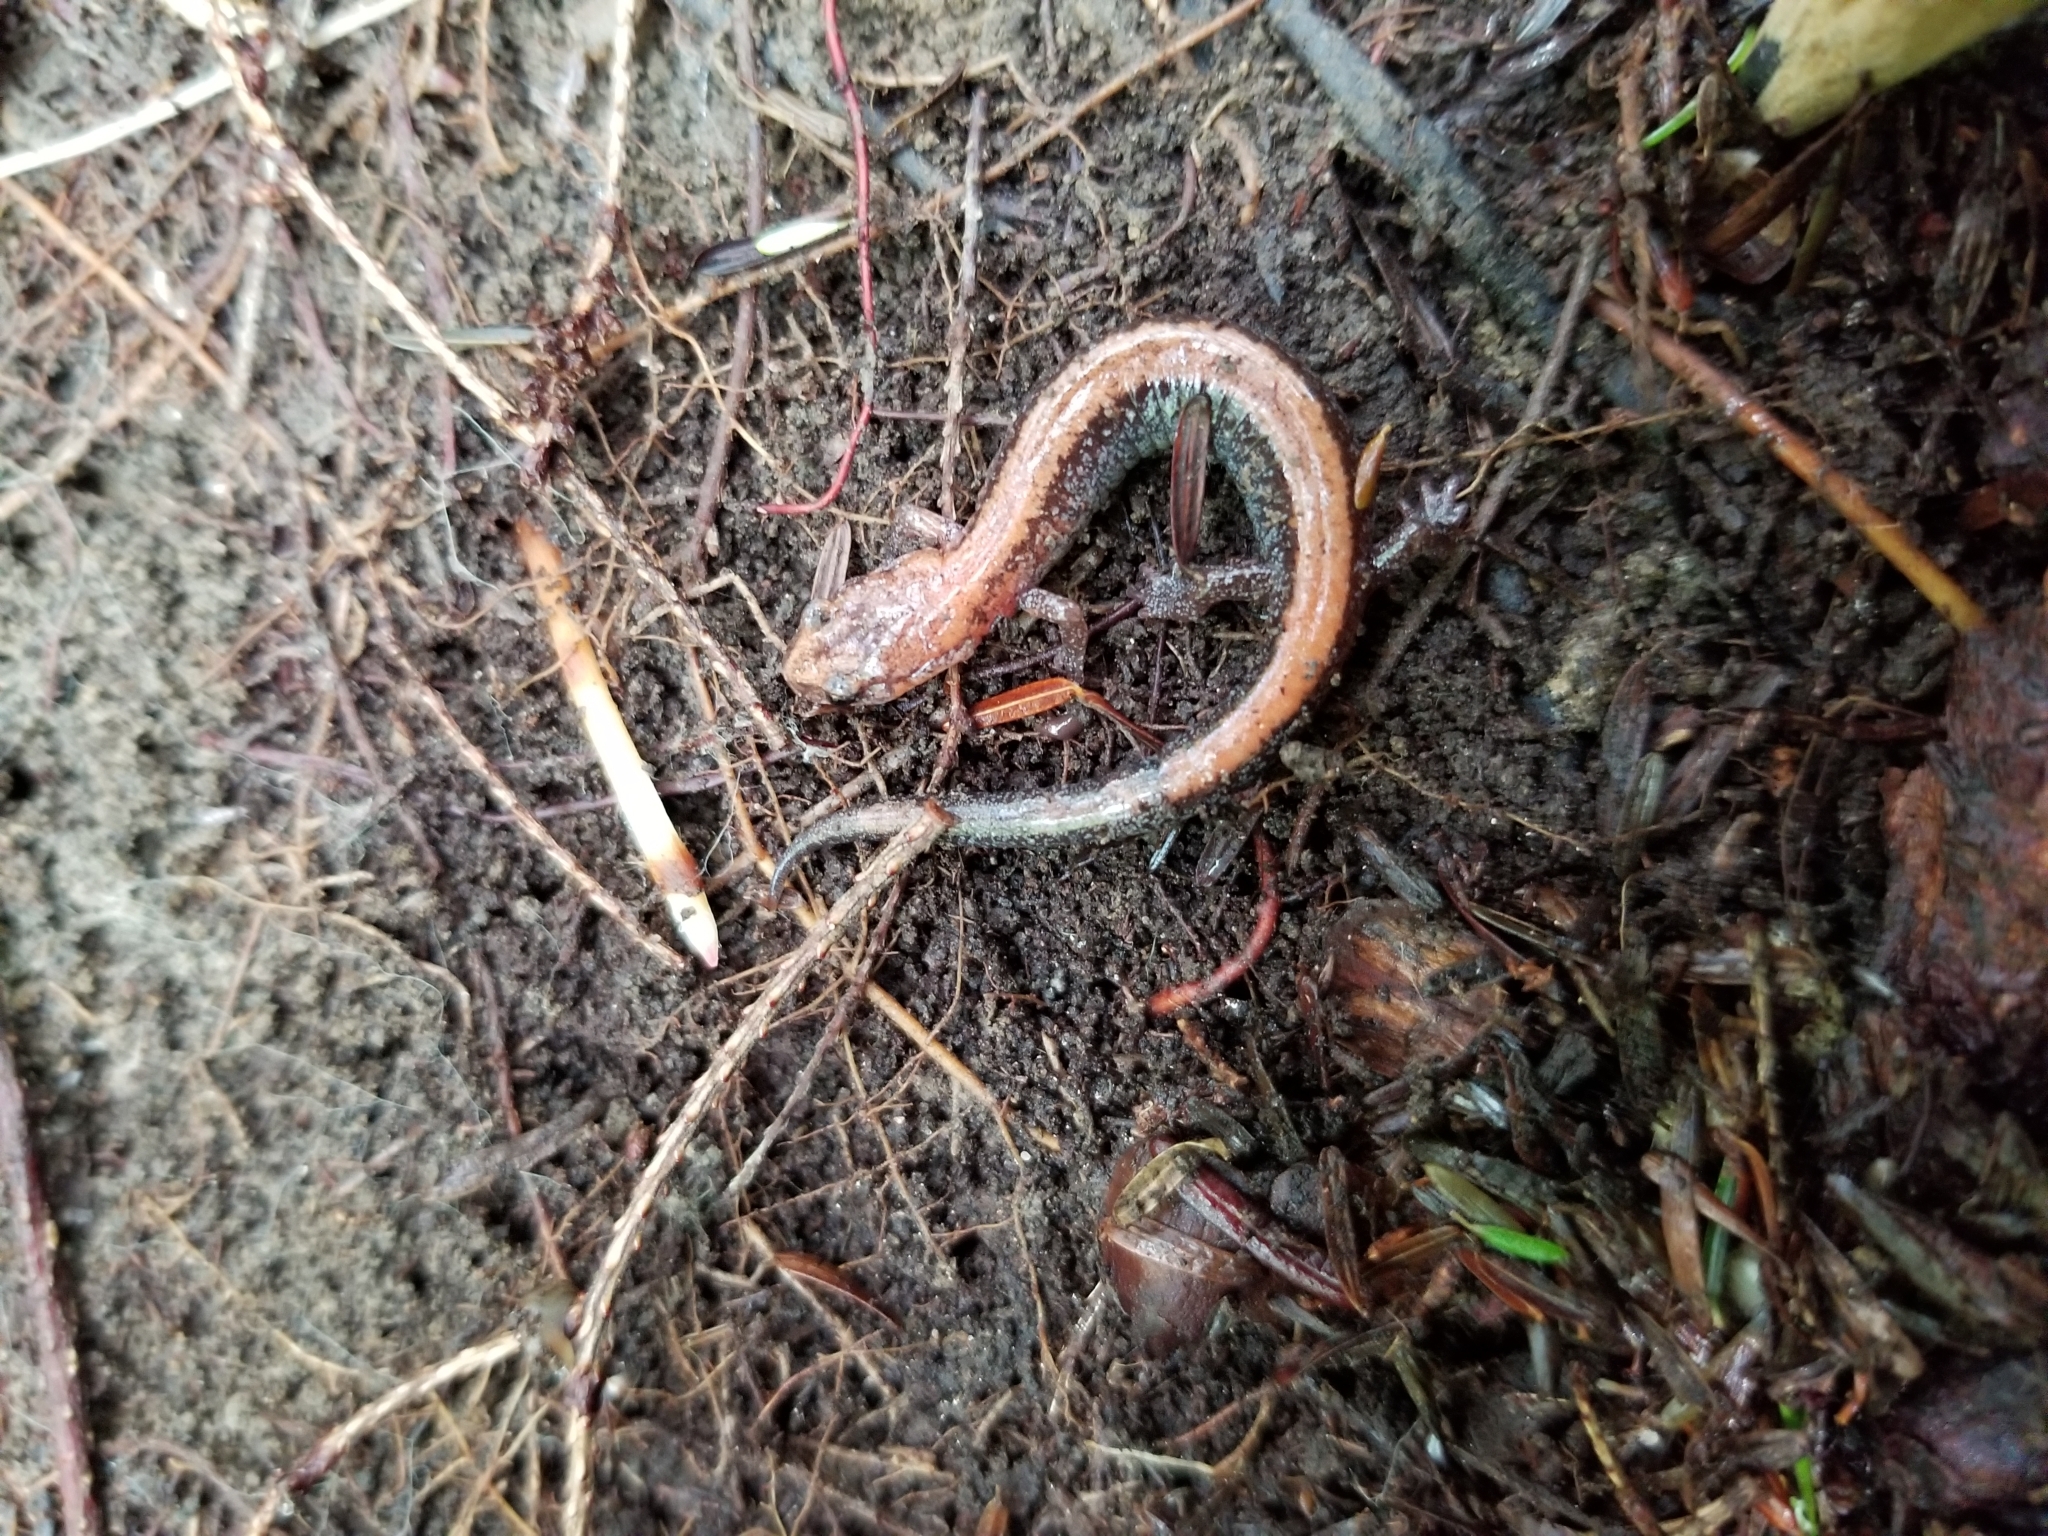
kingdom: Animalia
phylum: Chordata
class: Amphibia
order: Caudata
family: Plethodontidae
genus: Plethodon
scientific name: Plethodon cinereus
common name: Redback salamander
